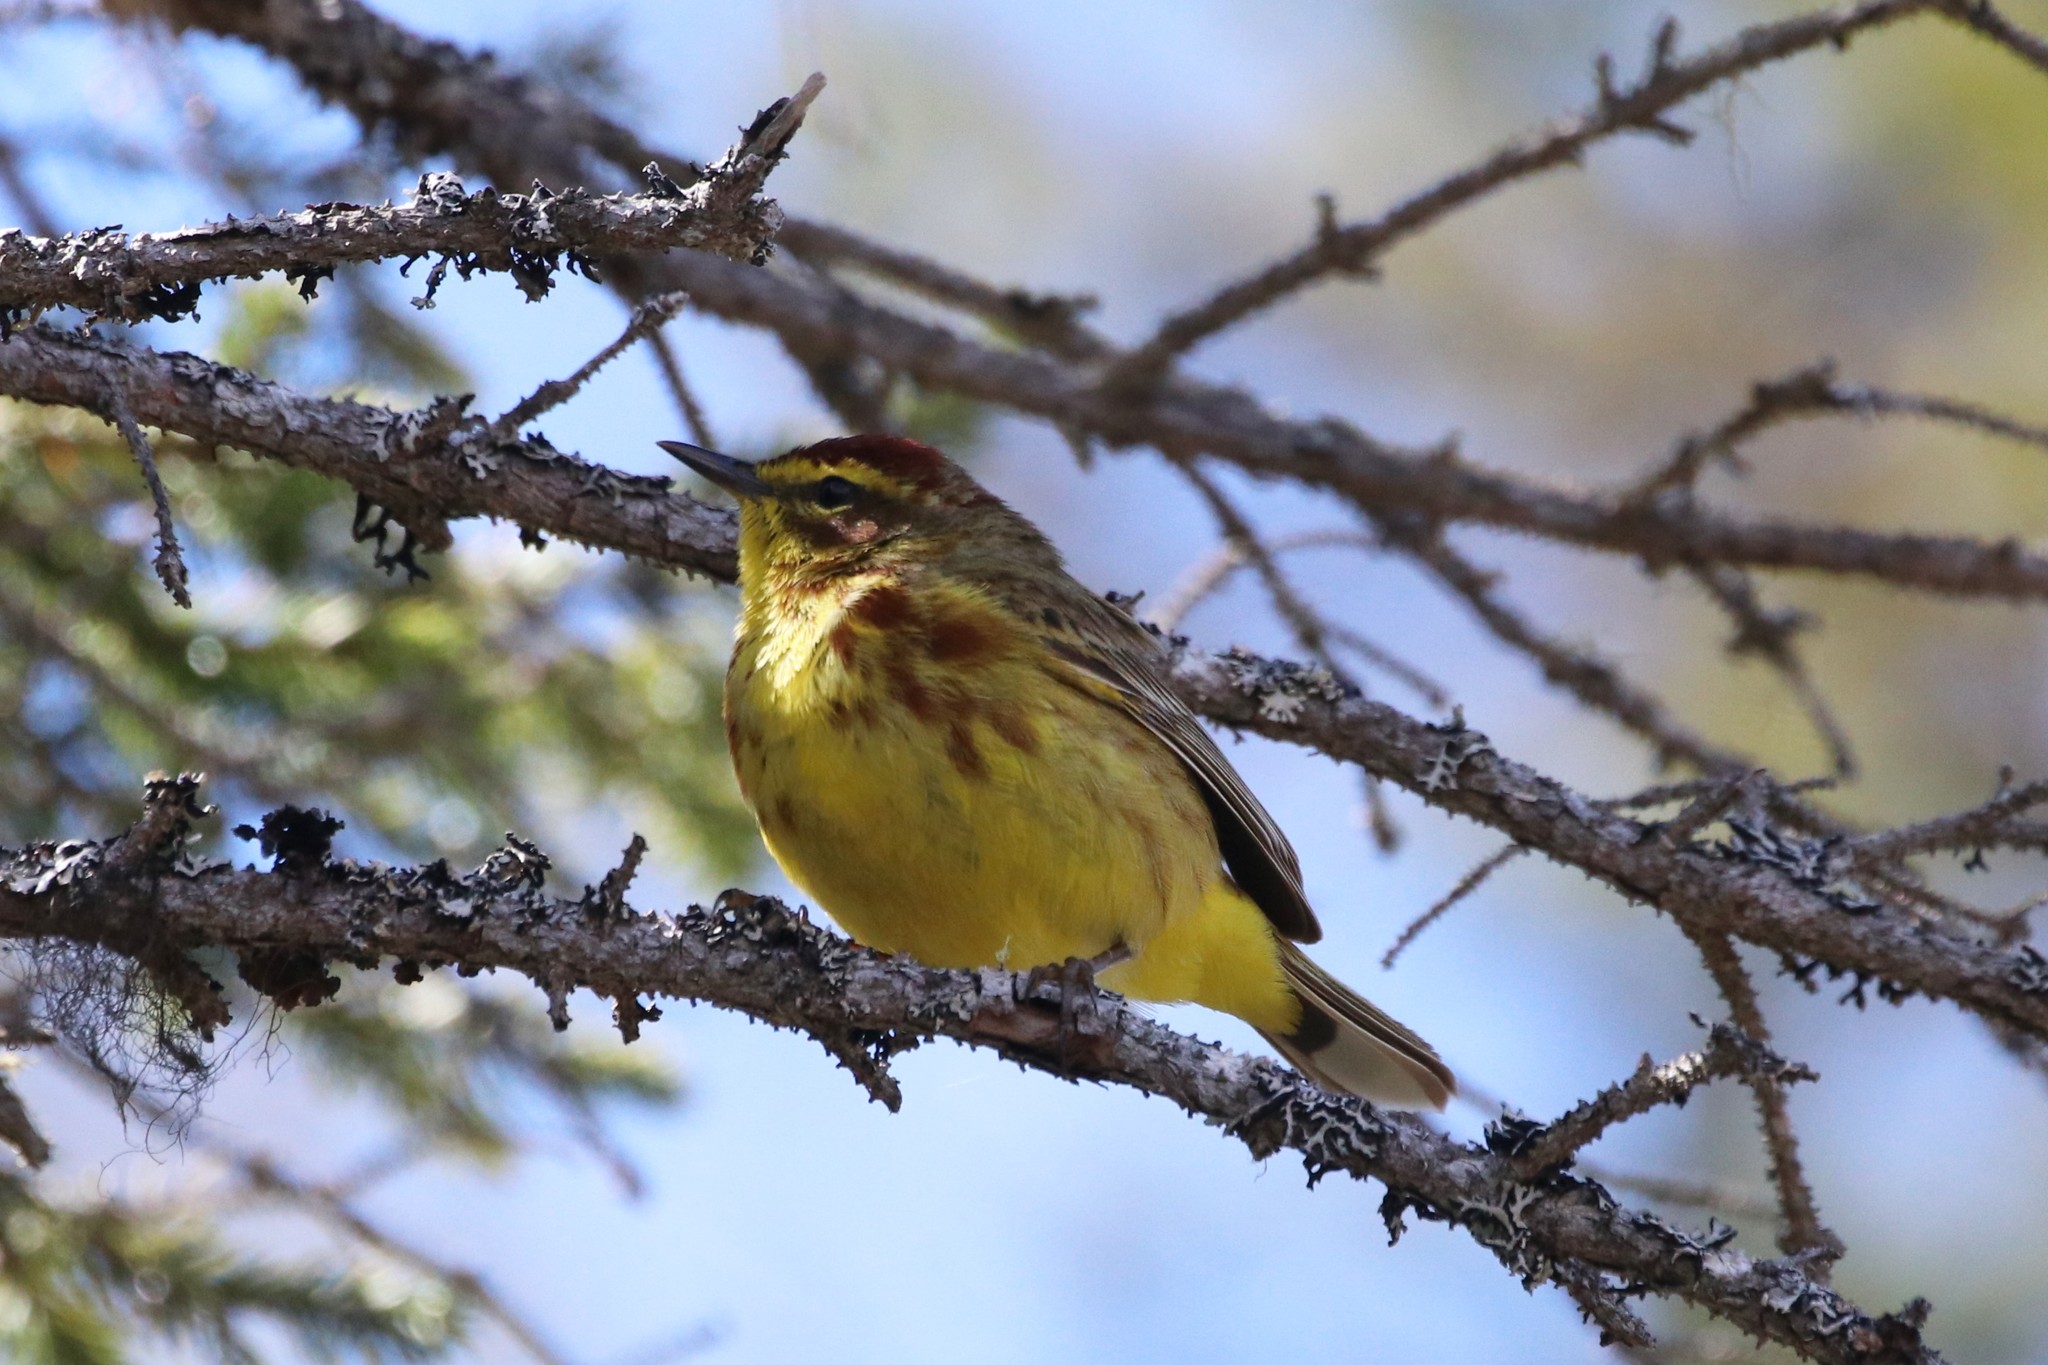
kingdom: Animalia
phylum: Chordata
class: Aves
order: Passeriformes
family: Parulidae
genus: Setophaga
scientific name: Setophaga palmarum
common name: Palm warbler
